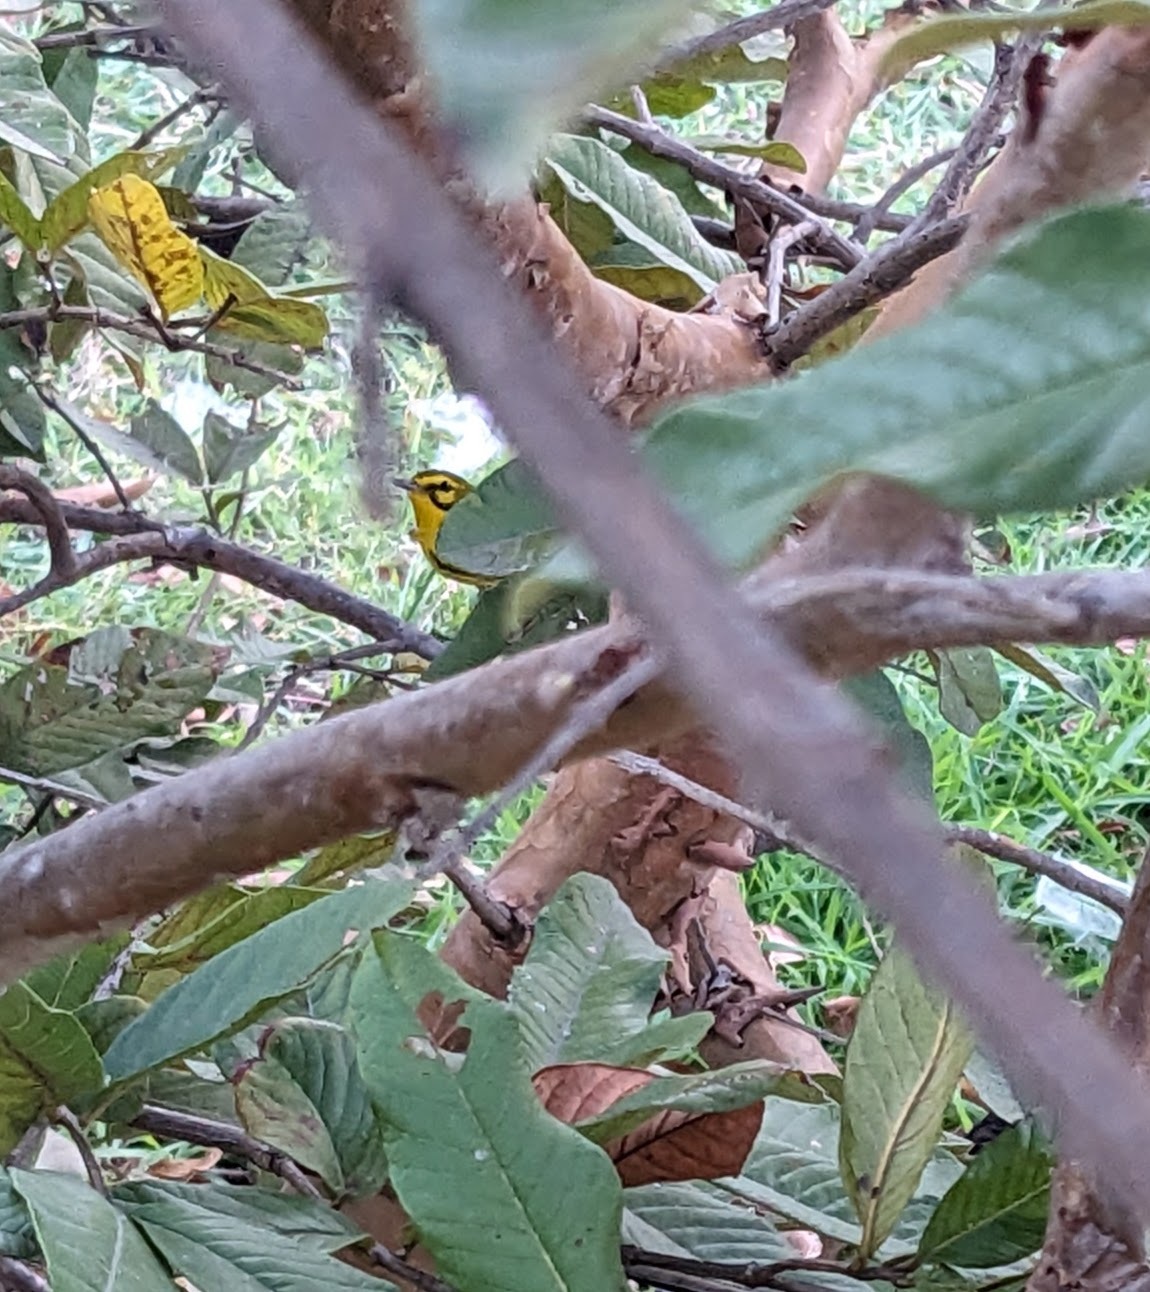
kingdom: Animalia
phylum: Chordata
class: Aves
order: Passeriformes
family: Parulidae
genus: Setophaga
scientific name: Setophaga discolor
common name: Prairie warbler
